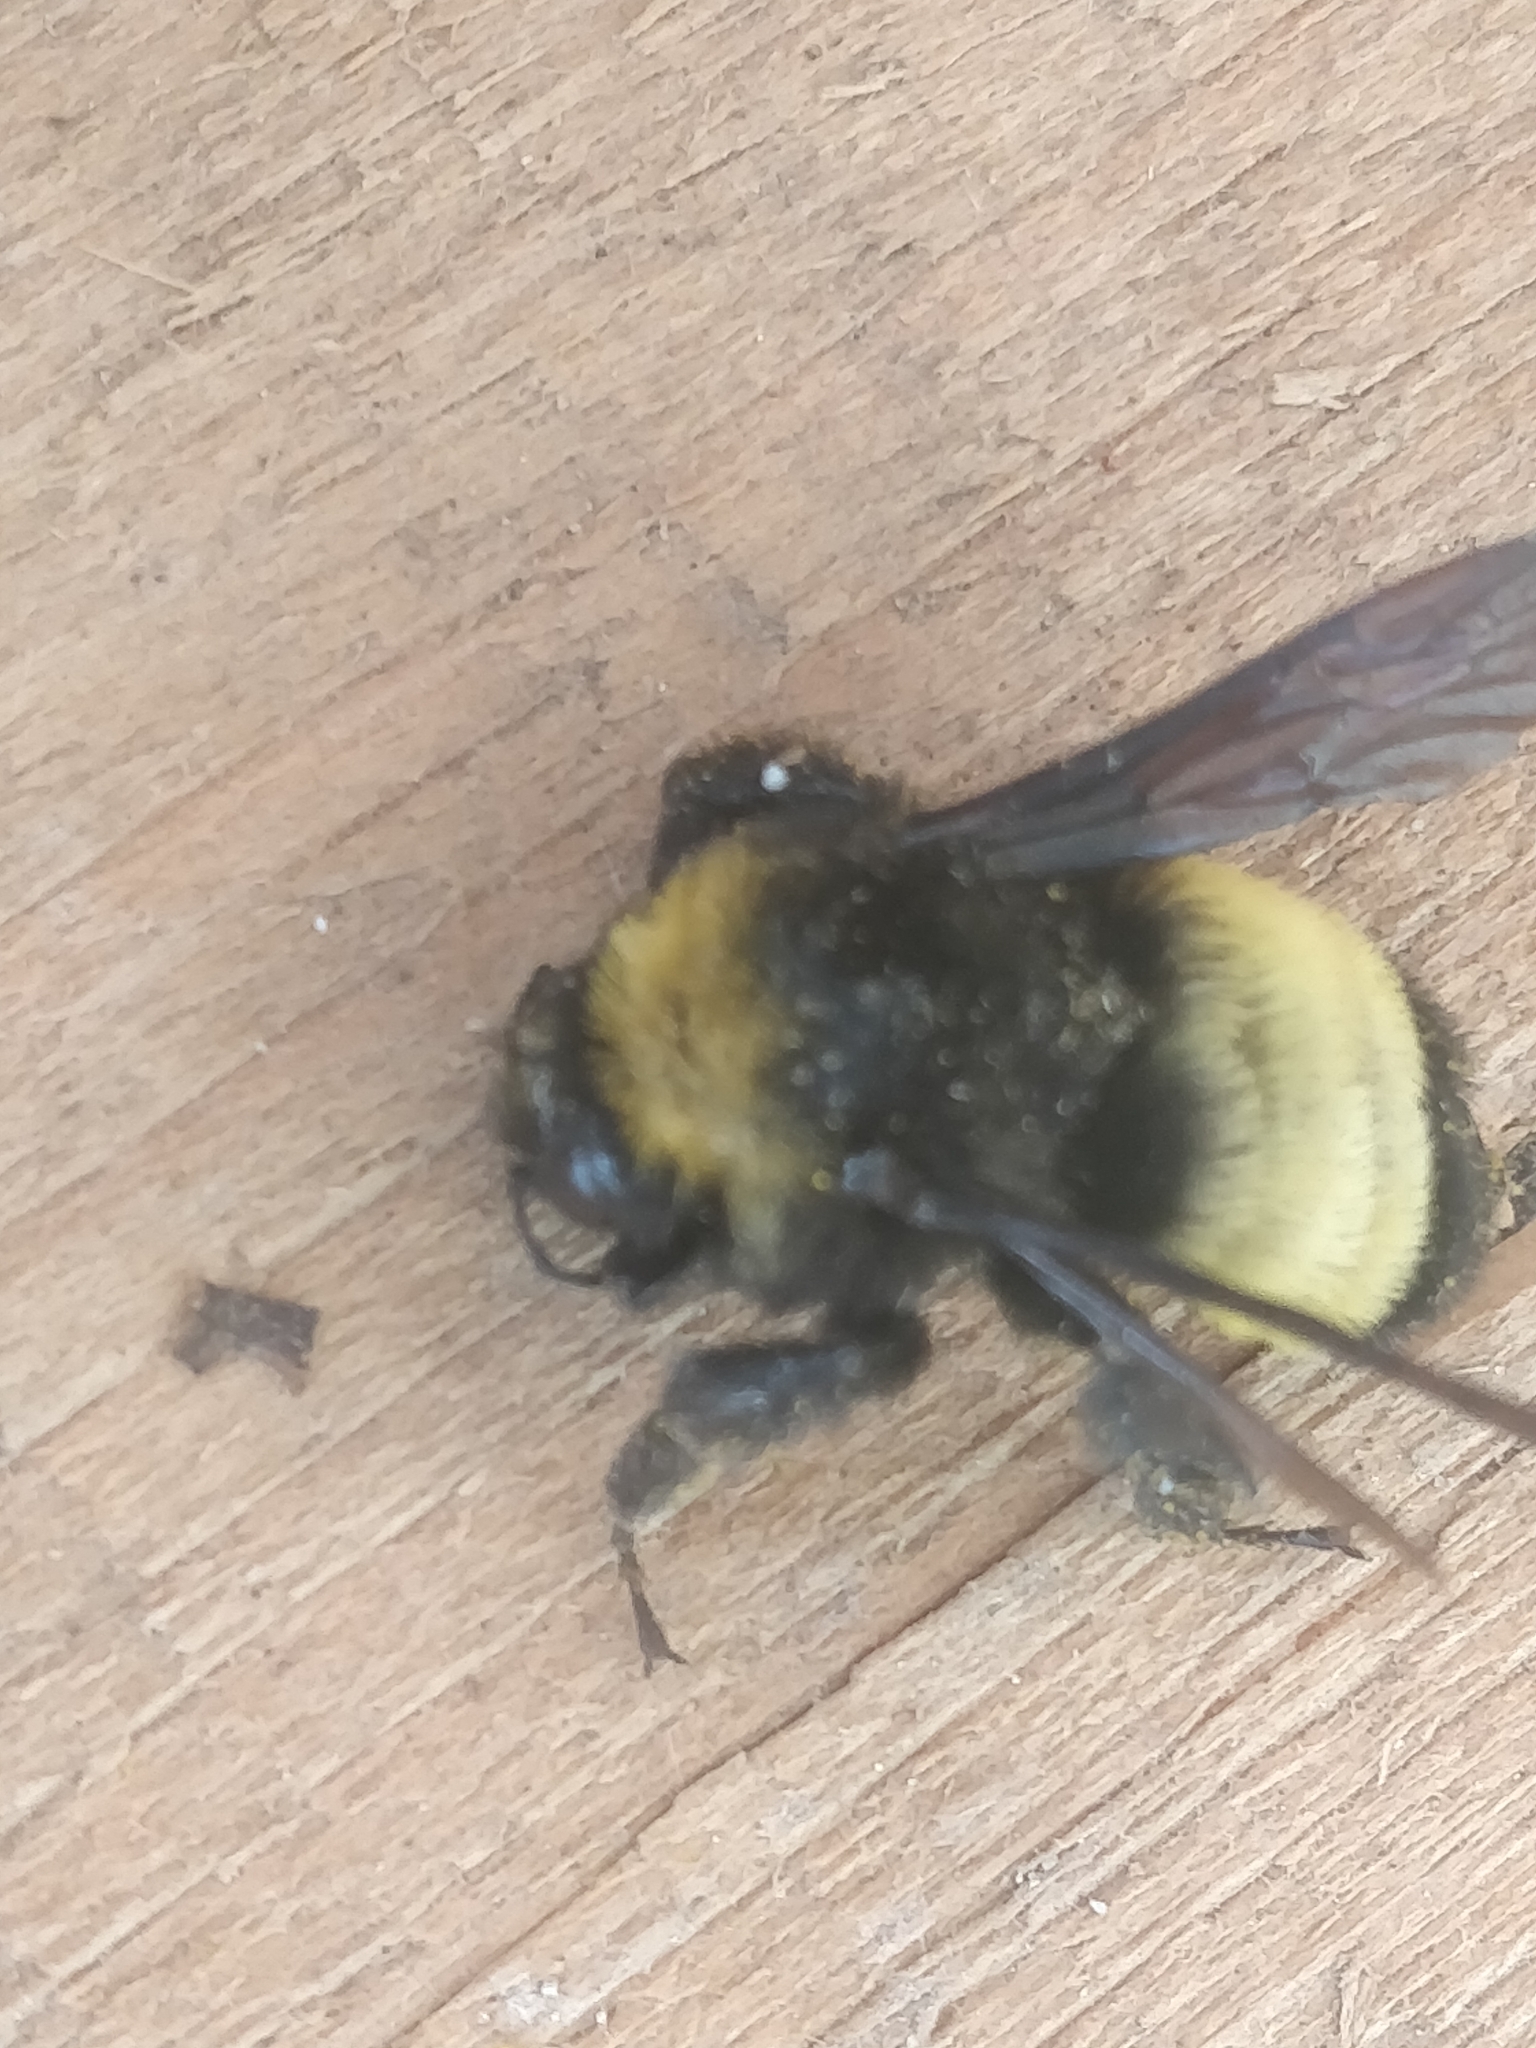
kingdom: Animalia
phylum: Arthropoda
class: Insecta
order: Hymenoptera
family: Apidae
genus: Bombus
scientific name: Bombus pensylvanicus
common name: Bumble bee
